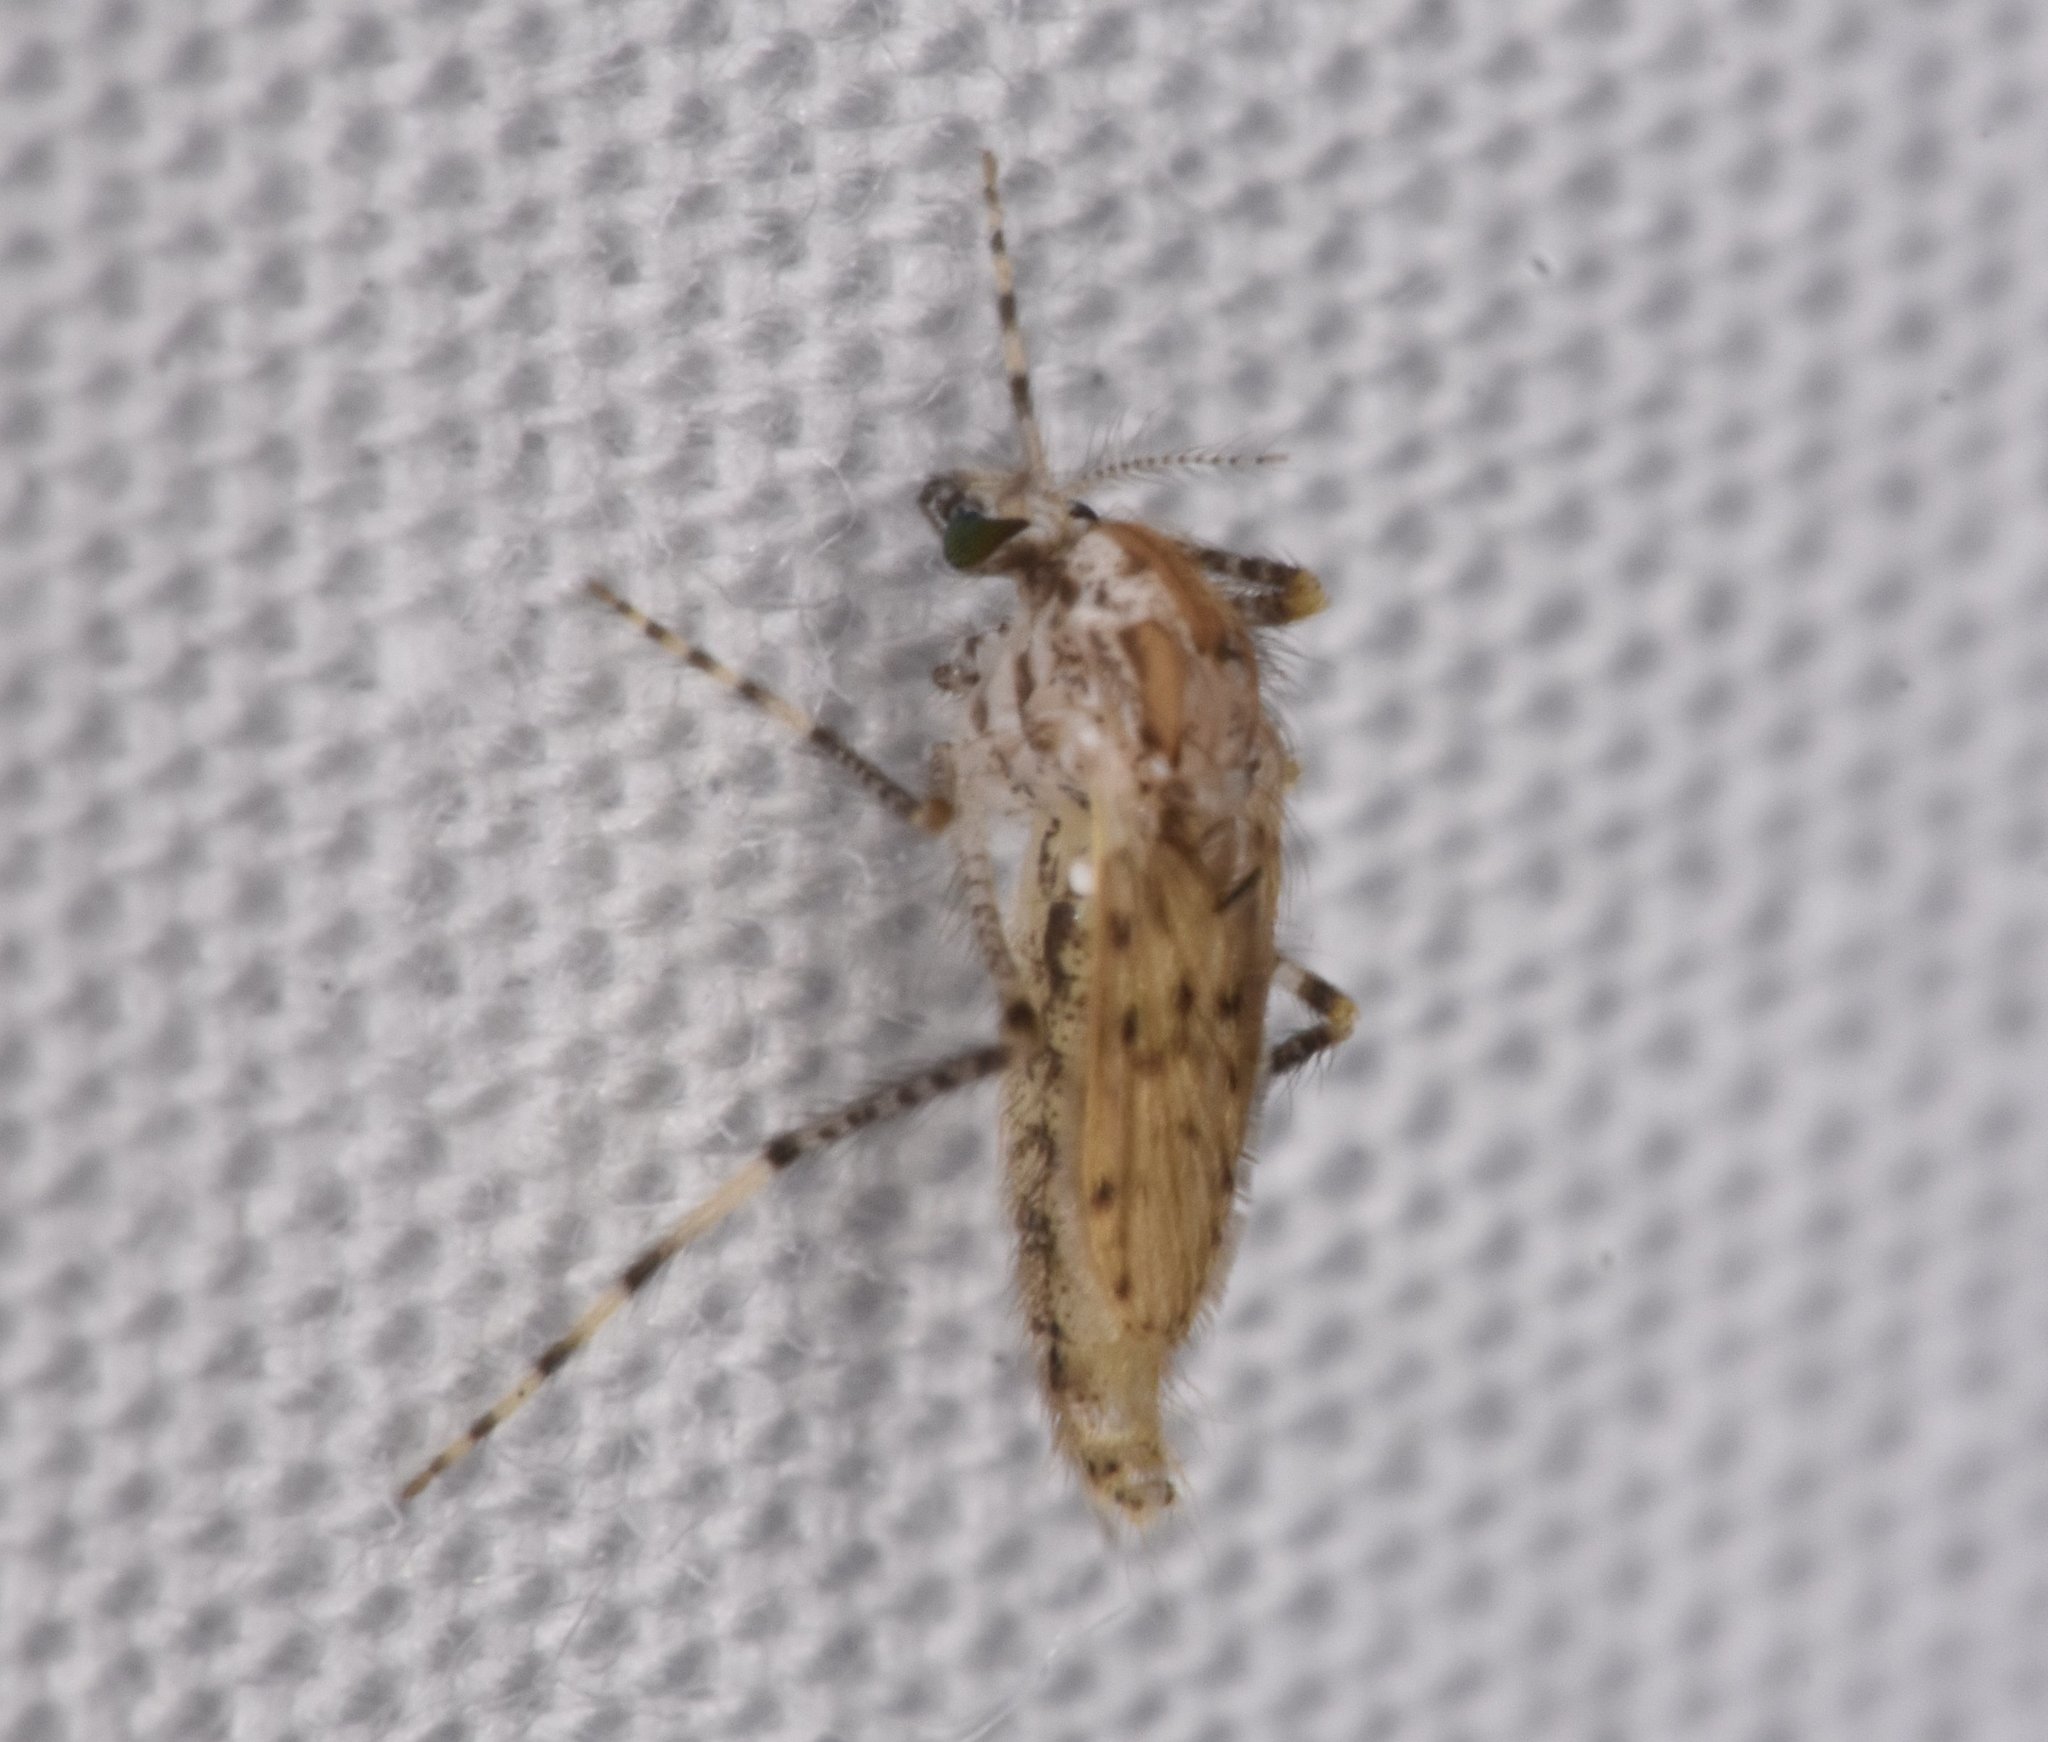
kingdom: Animalia
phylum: Arthropoda
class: Insecta
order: Diptera
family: Chaoboridae
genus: Chaoborus
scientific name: Chaoborus punctipennis
